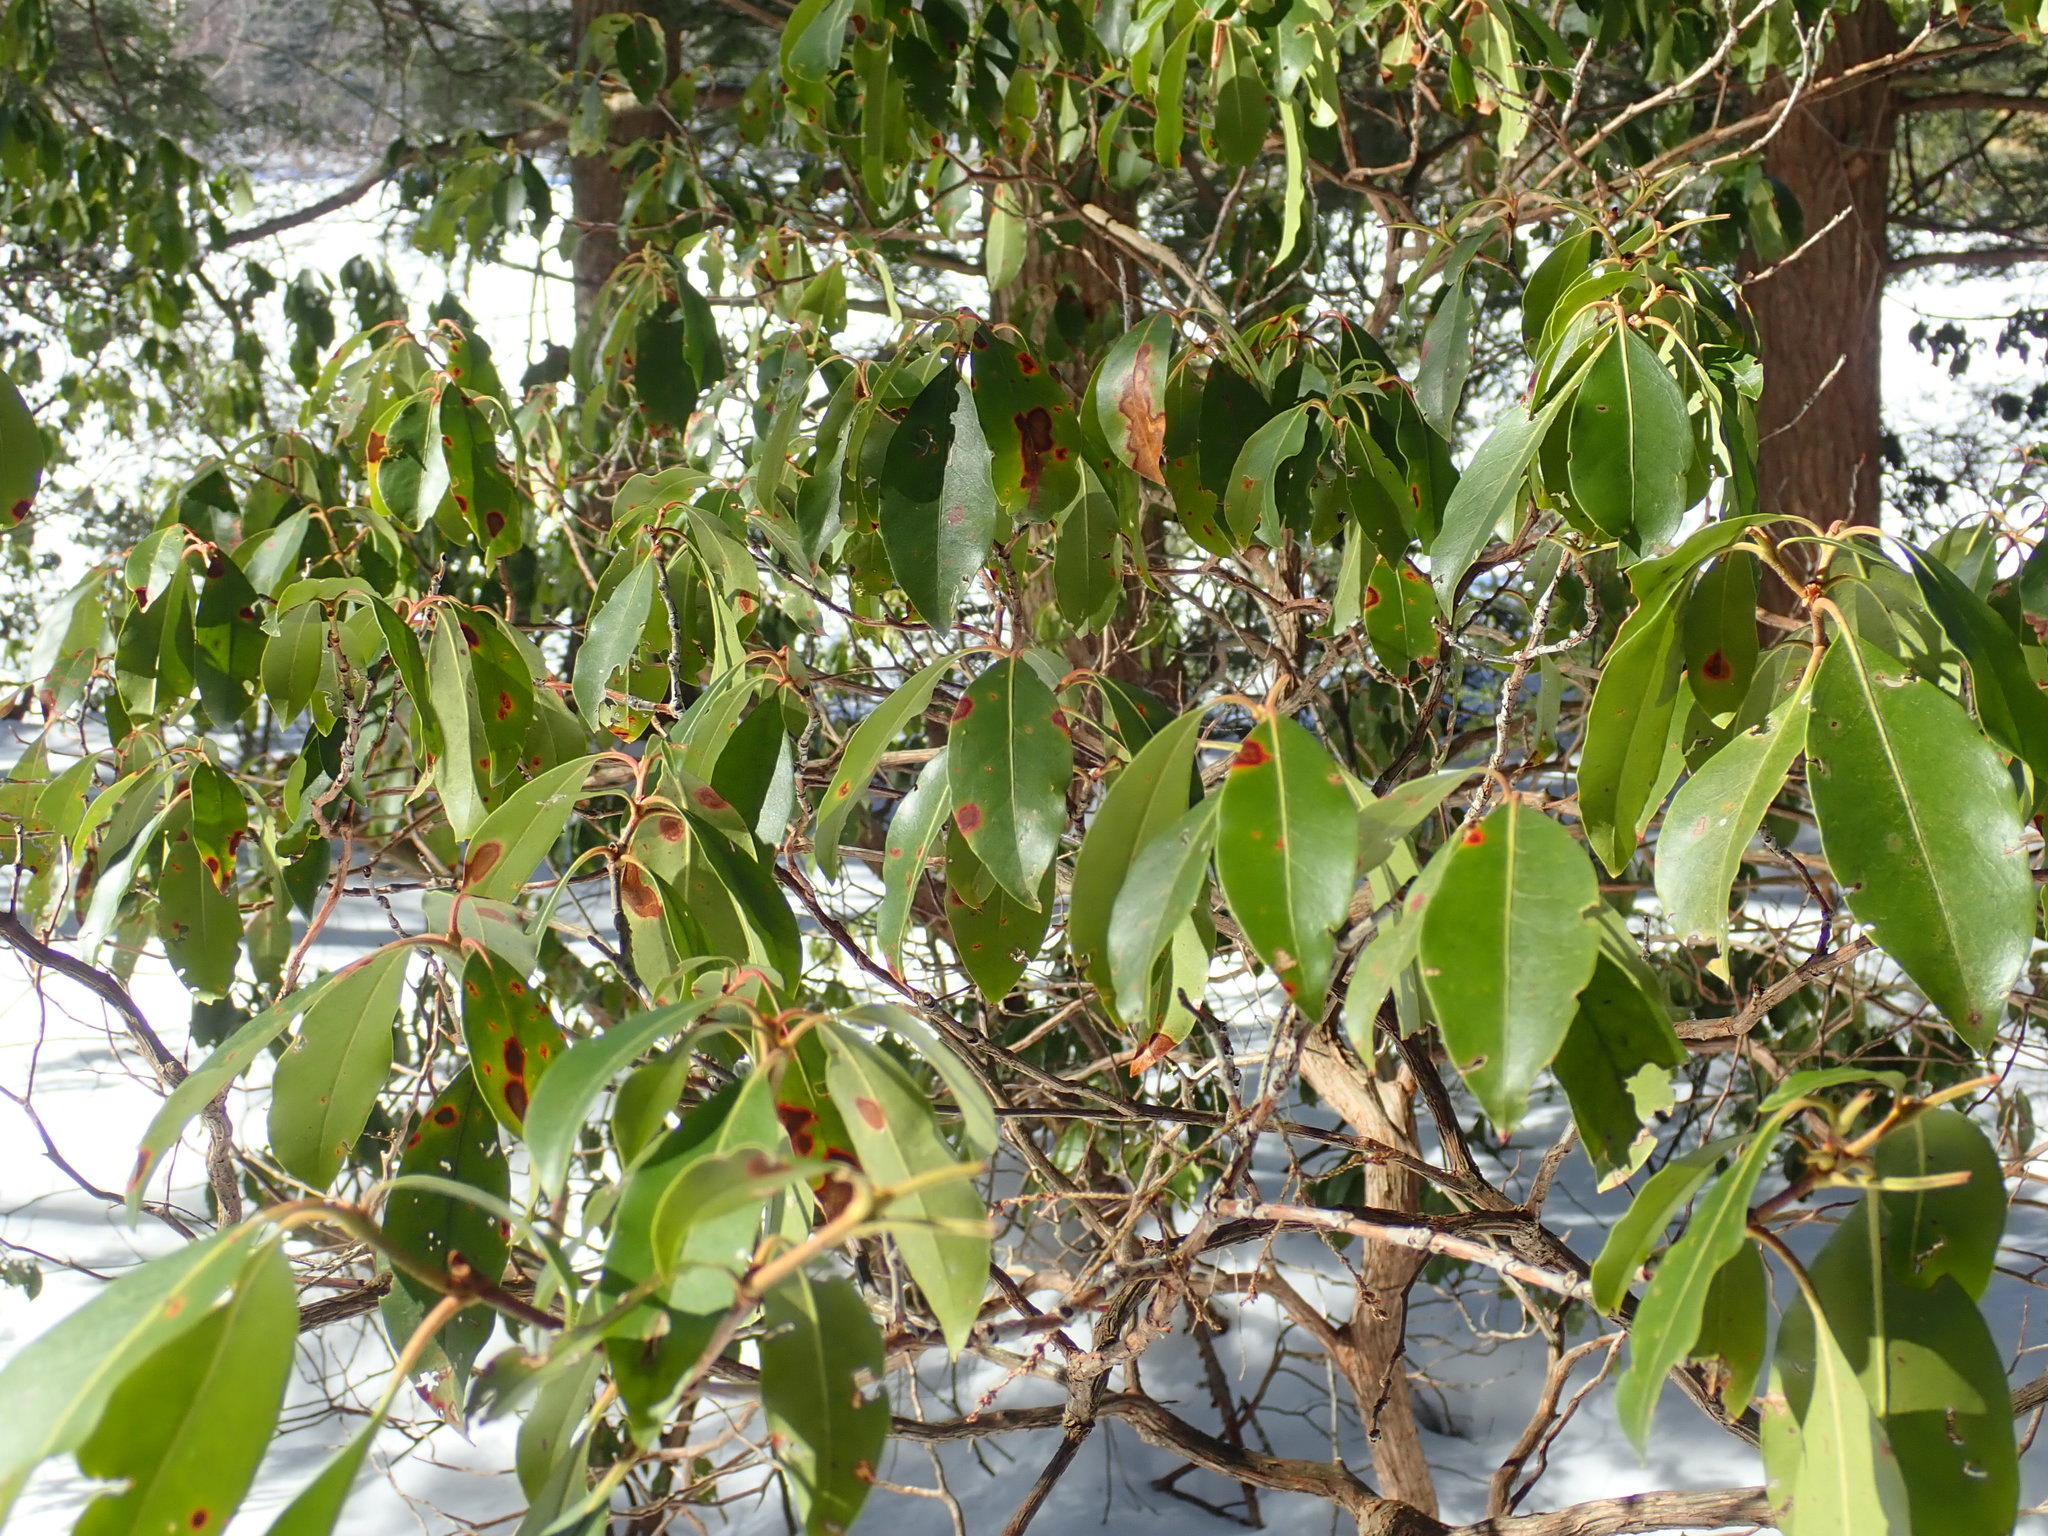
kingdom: Plantae
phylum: Tracheophyta
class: Magnoliopsida
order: Ericales
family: Ericaceae
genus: Kalmia
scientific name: Kalmia latifolia
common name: Mountain-laurel
